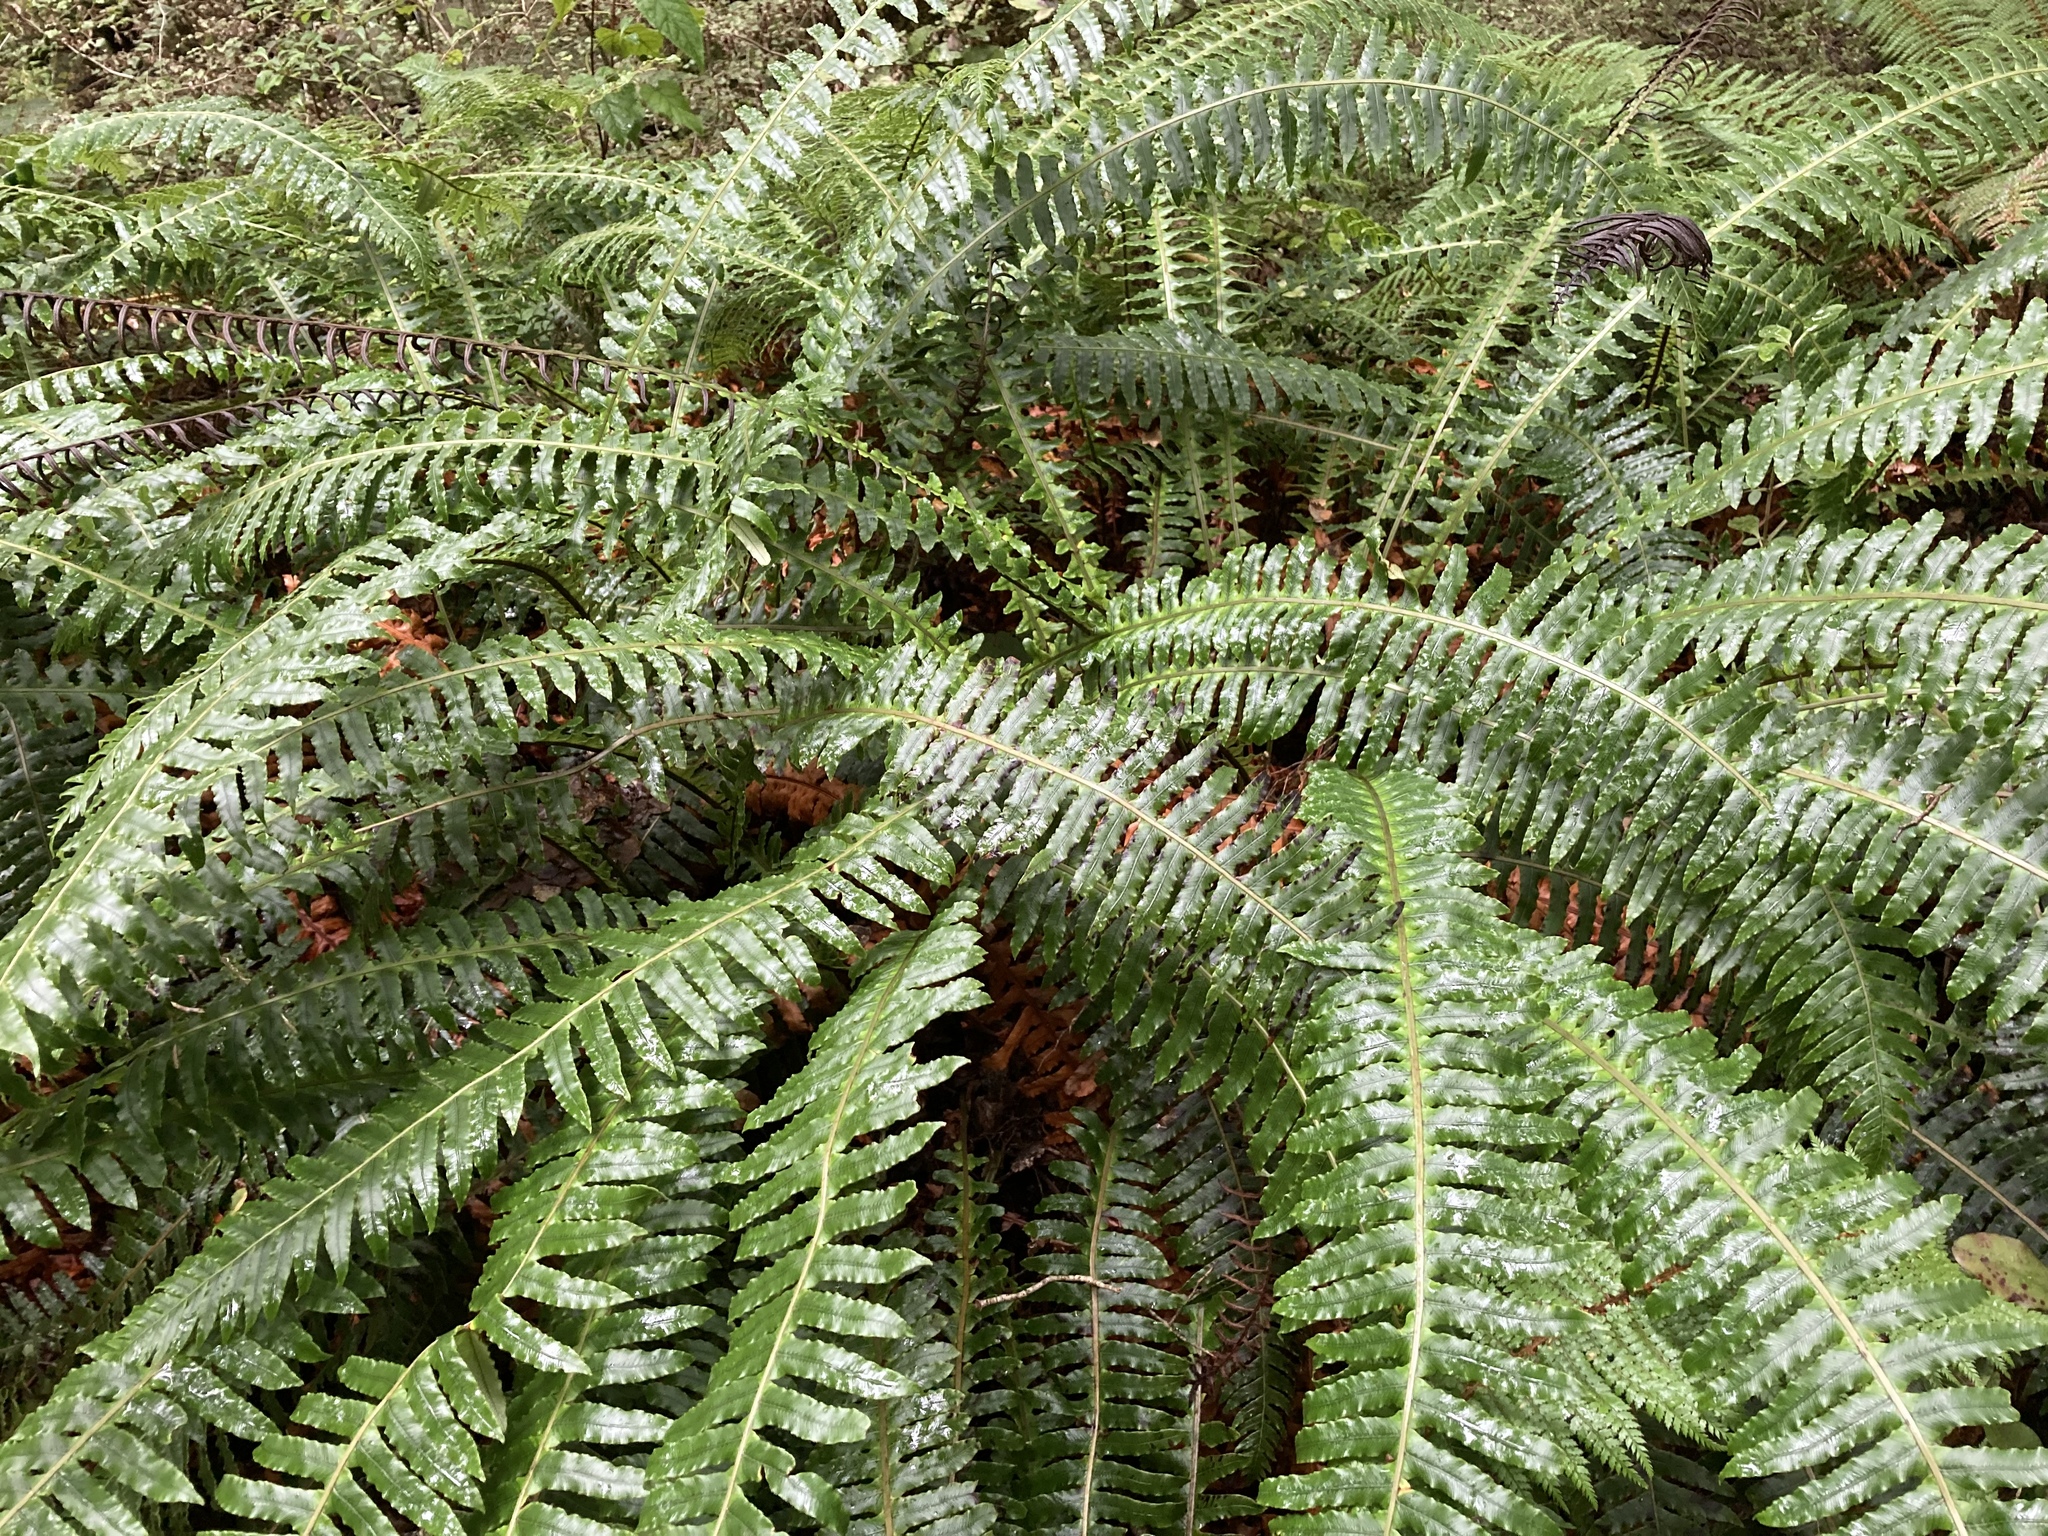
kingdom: Plantae
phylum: Tracheophyta
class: Polypodiopsida
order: Polypodiales
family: Blechnaceae
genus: Lomaria
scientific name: Lomaria discolor
